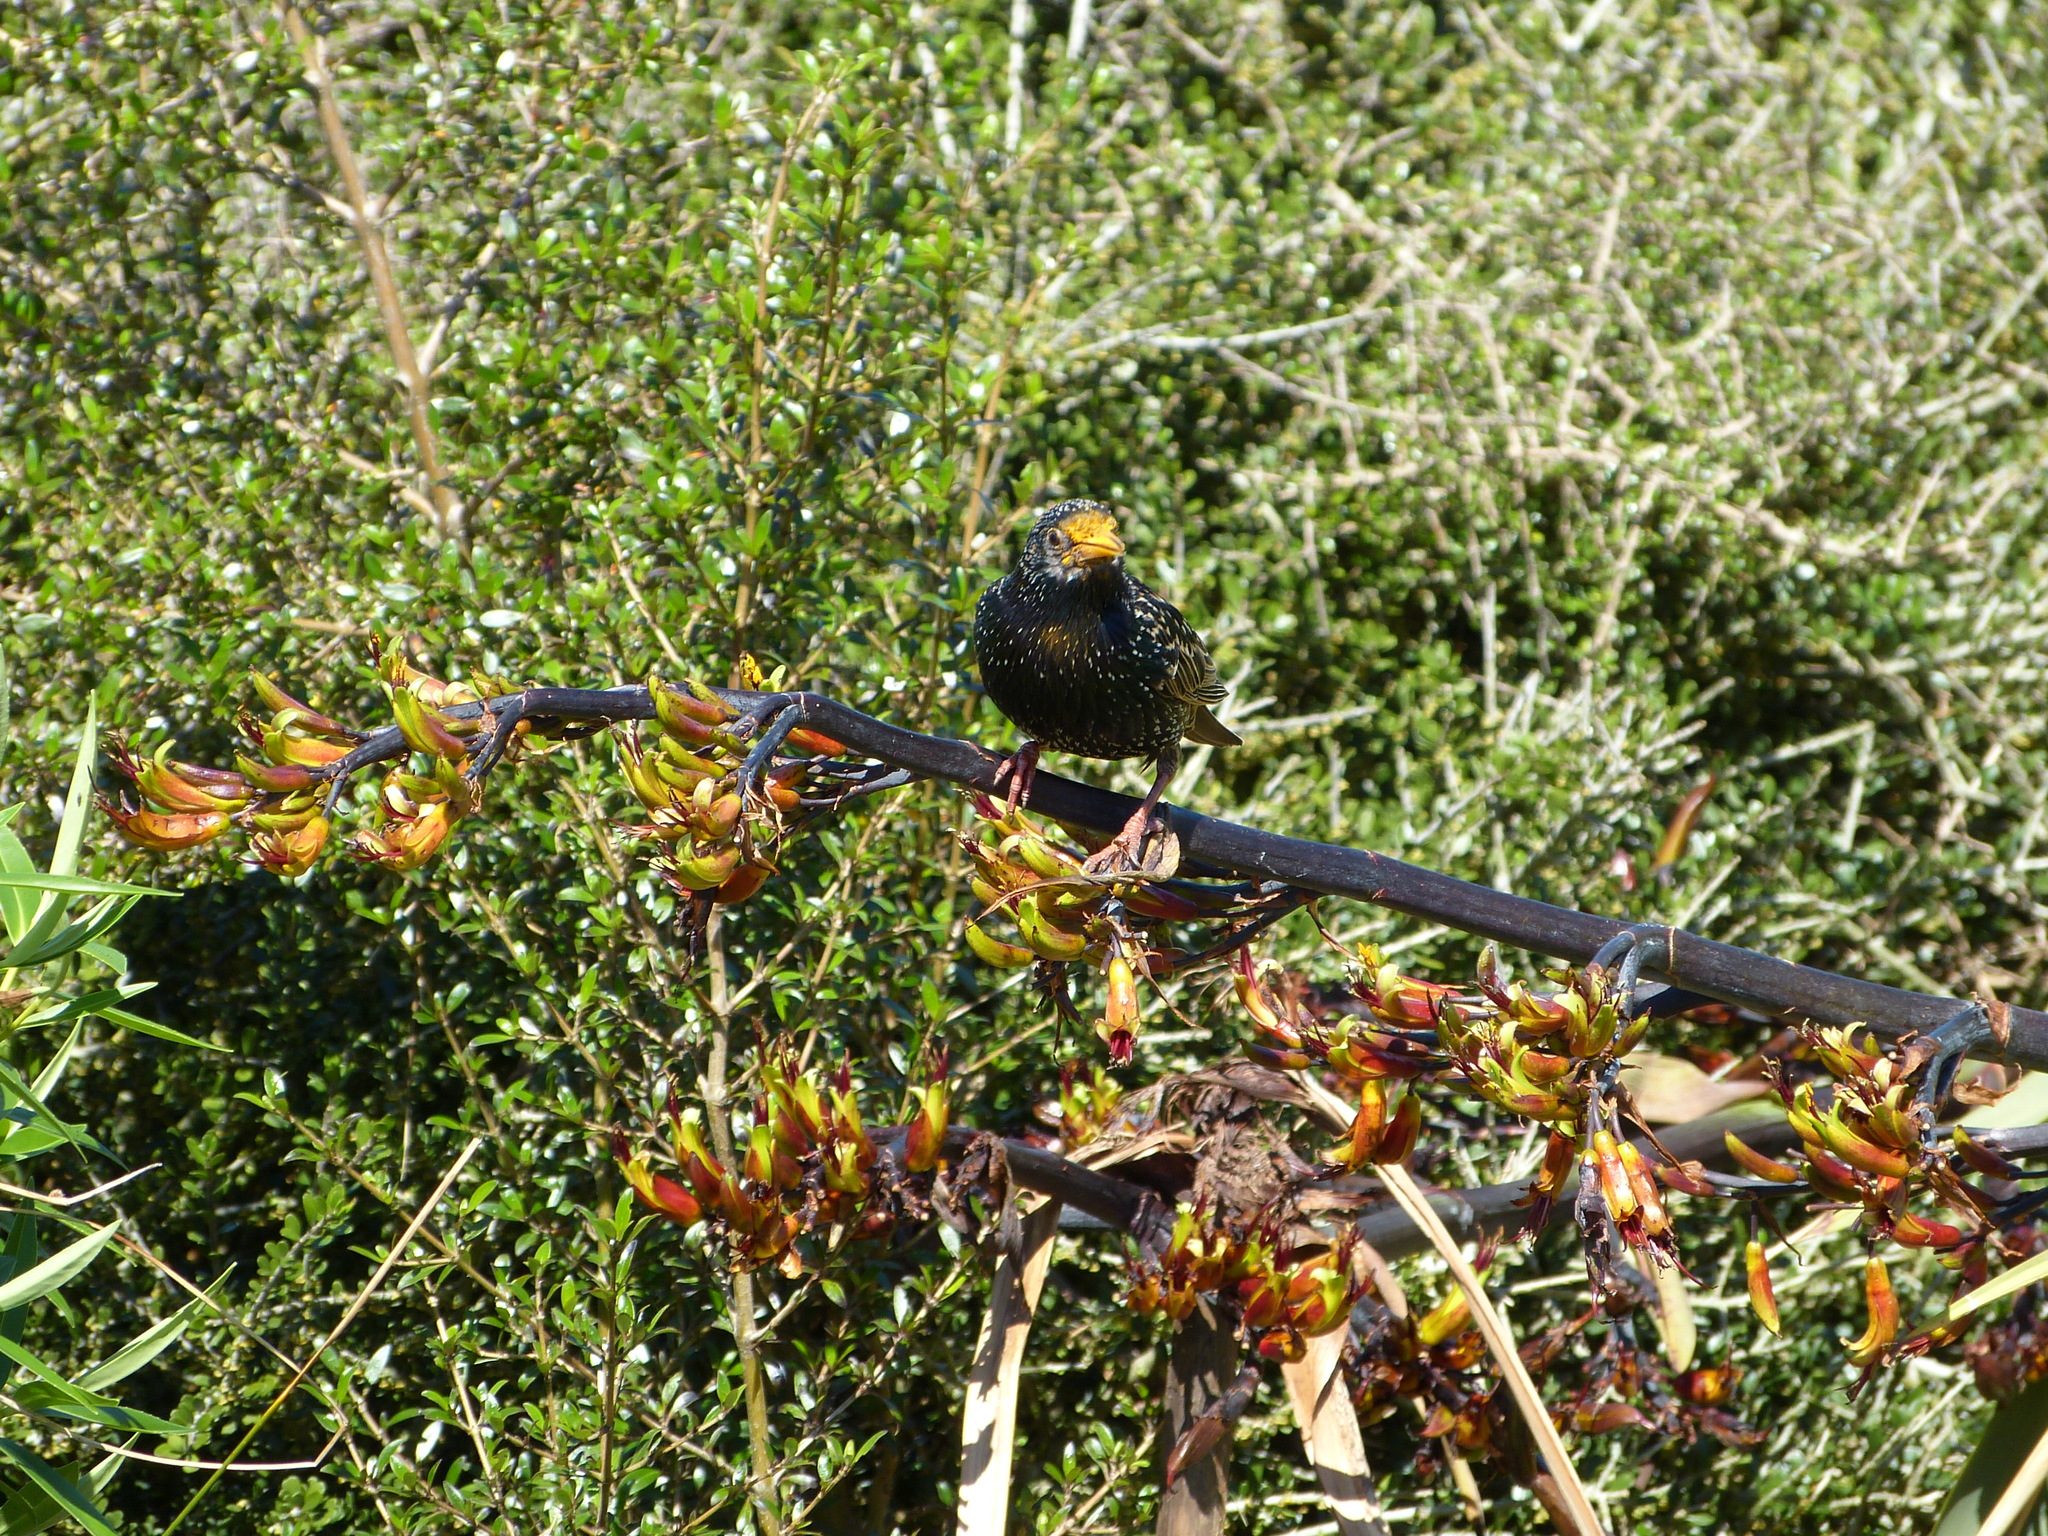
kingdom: Animalia
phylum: Chordata
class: Aves
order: Passeriformes
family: Sturnidae
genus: Sturnus
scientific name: Sturnus vulgaris
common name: Common starling
